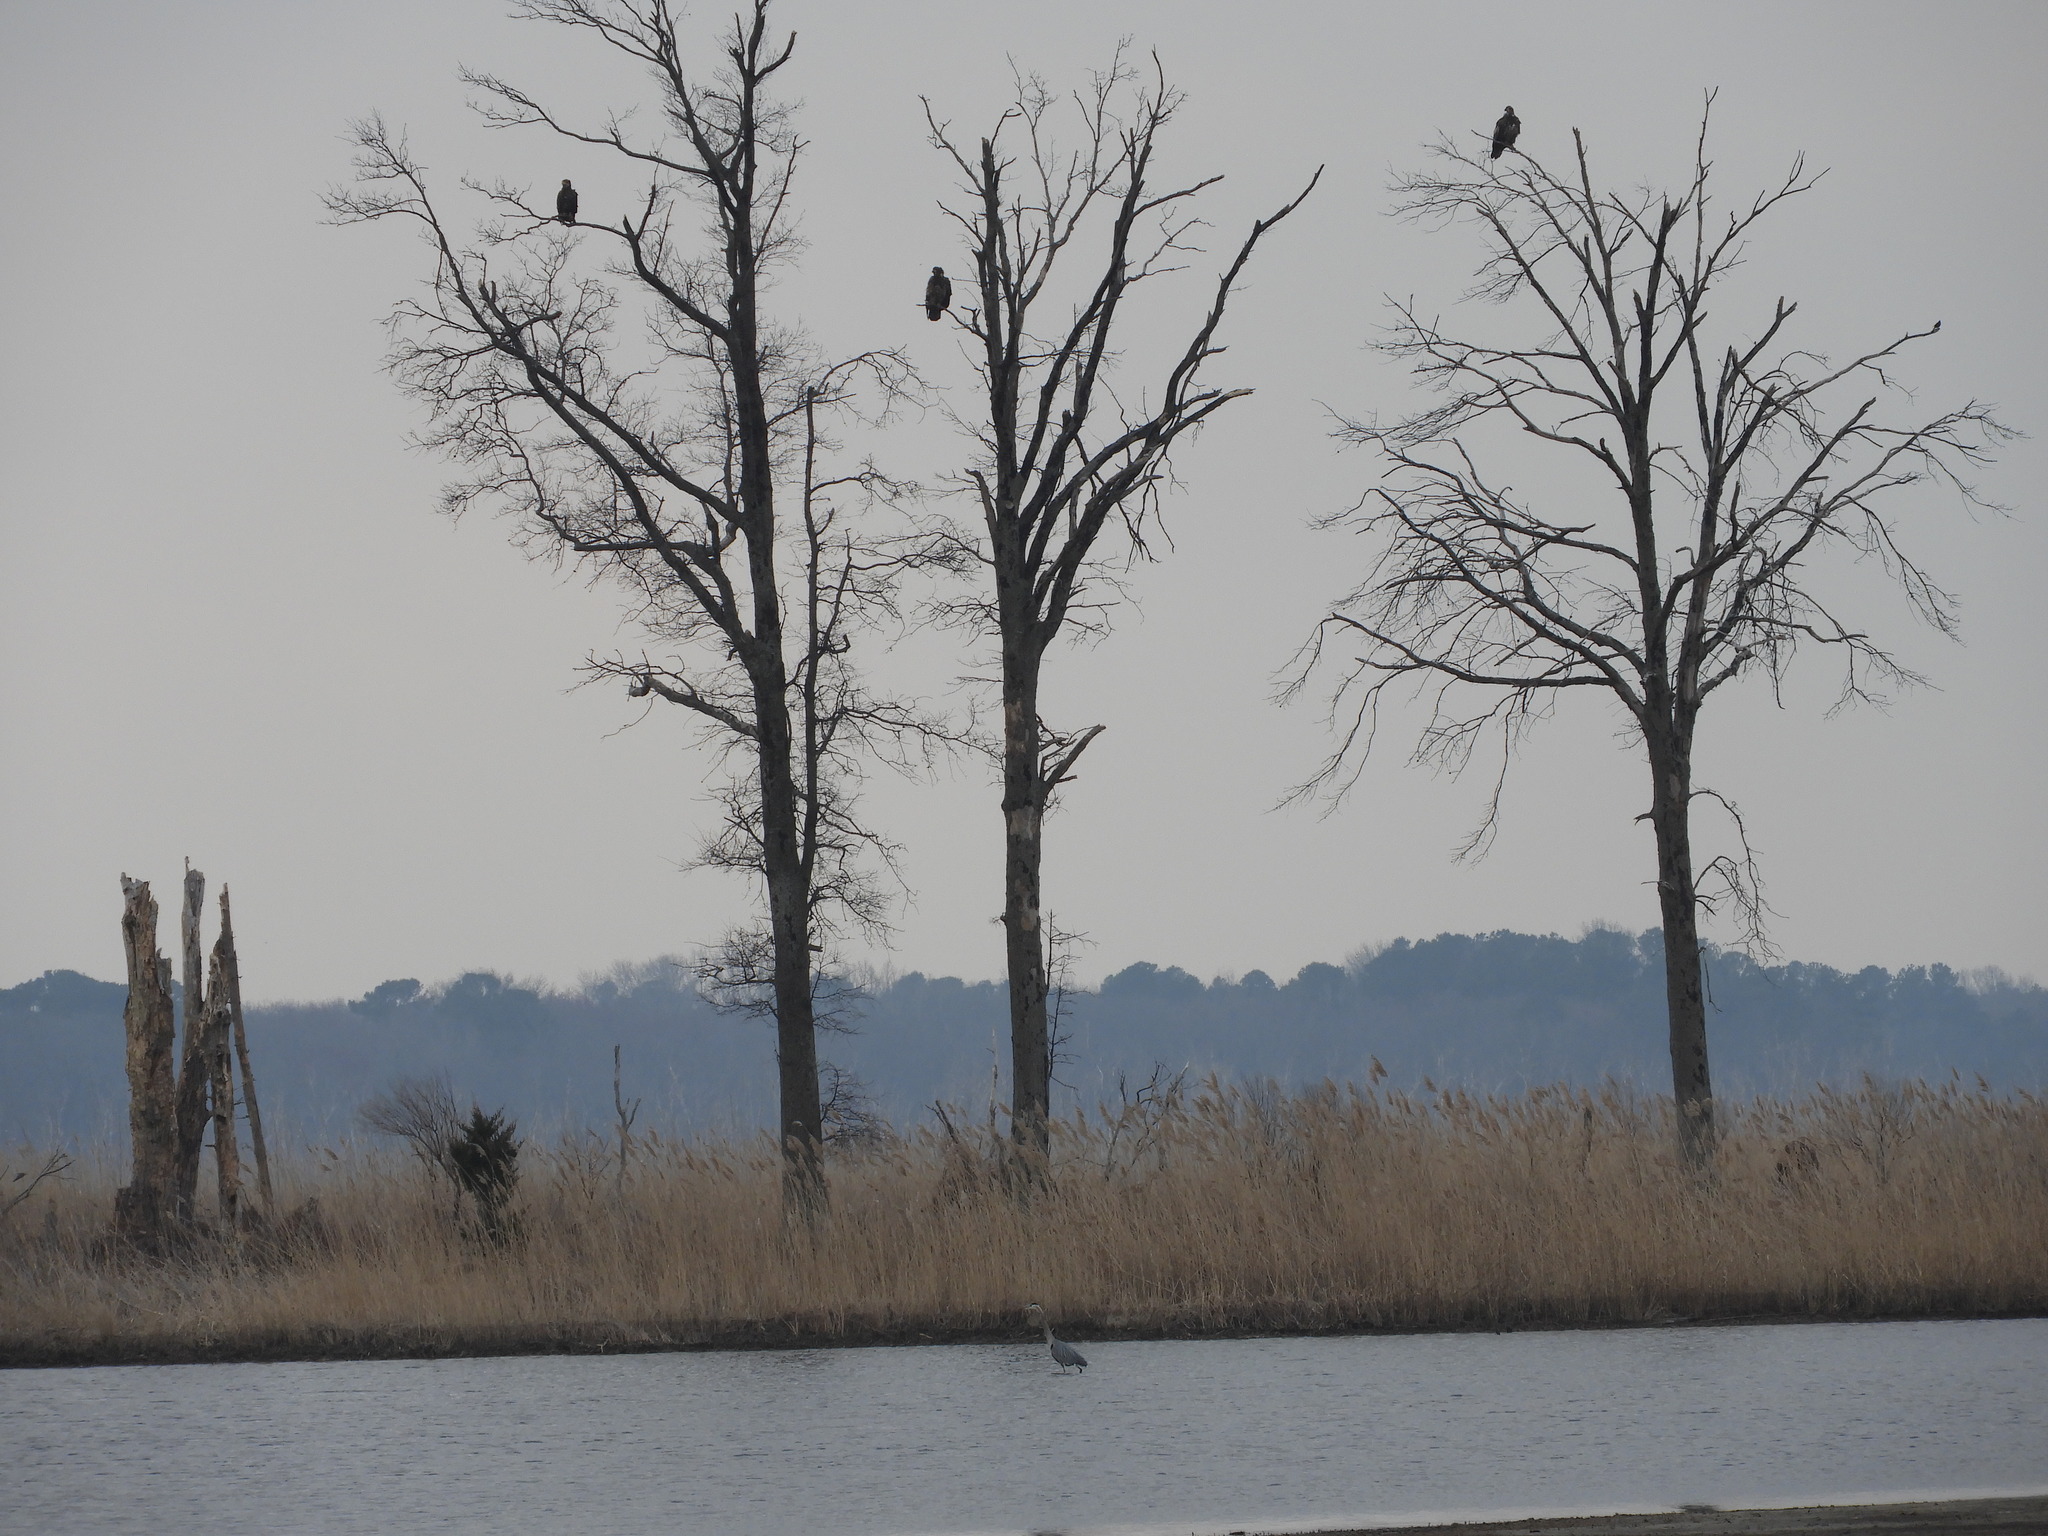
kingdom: Animalia
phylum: Chordata
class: Aves
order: Accipitriformes
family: Accipitridae
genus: Haliaeetus
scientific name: Haliaeetus leucocephalus
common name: Bald eagle
